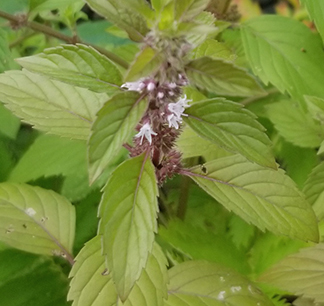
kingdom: Plantae
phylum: Tracheophyta
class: Magnoliopsida
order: Lamiales
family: Lamiaceae
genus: Mentha
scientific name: Mentha canadensis
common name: American corn mint
